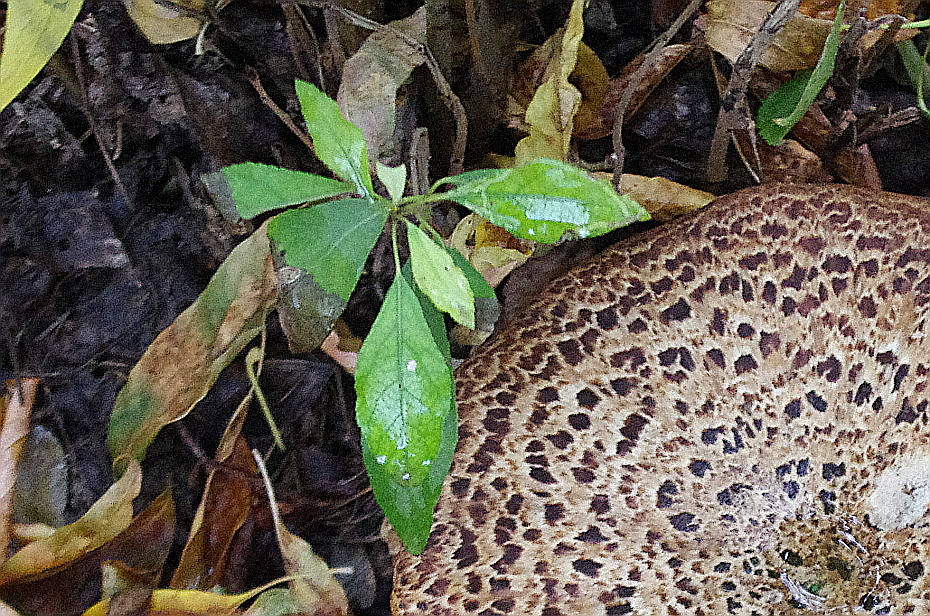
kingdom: Plantae
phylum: Tracheophyta
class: Magnoliopsida
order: Asterales
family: Asteraceae
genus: Cirsium
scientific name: Cirsium arvense
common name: Creeping thistle
